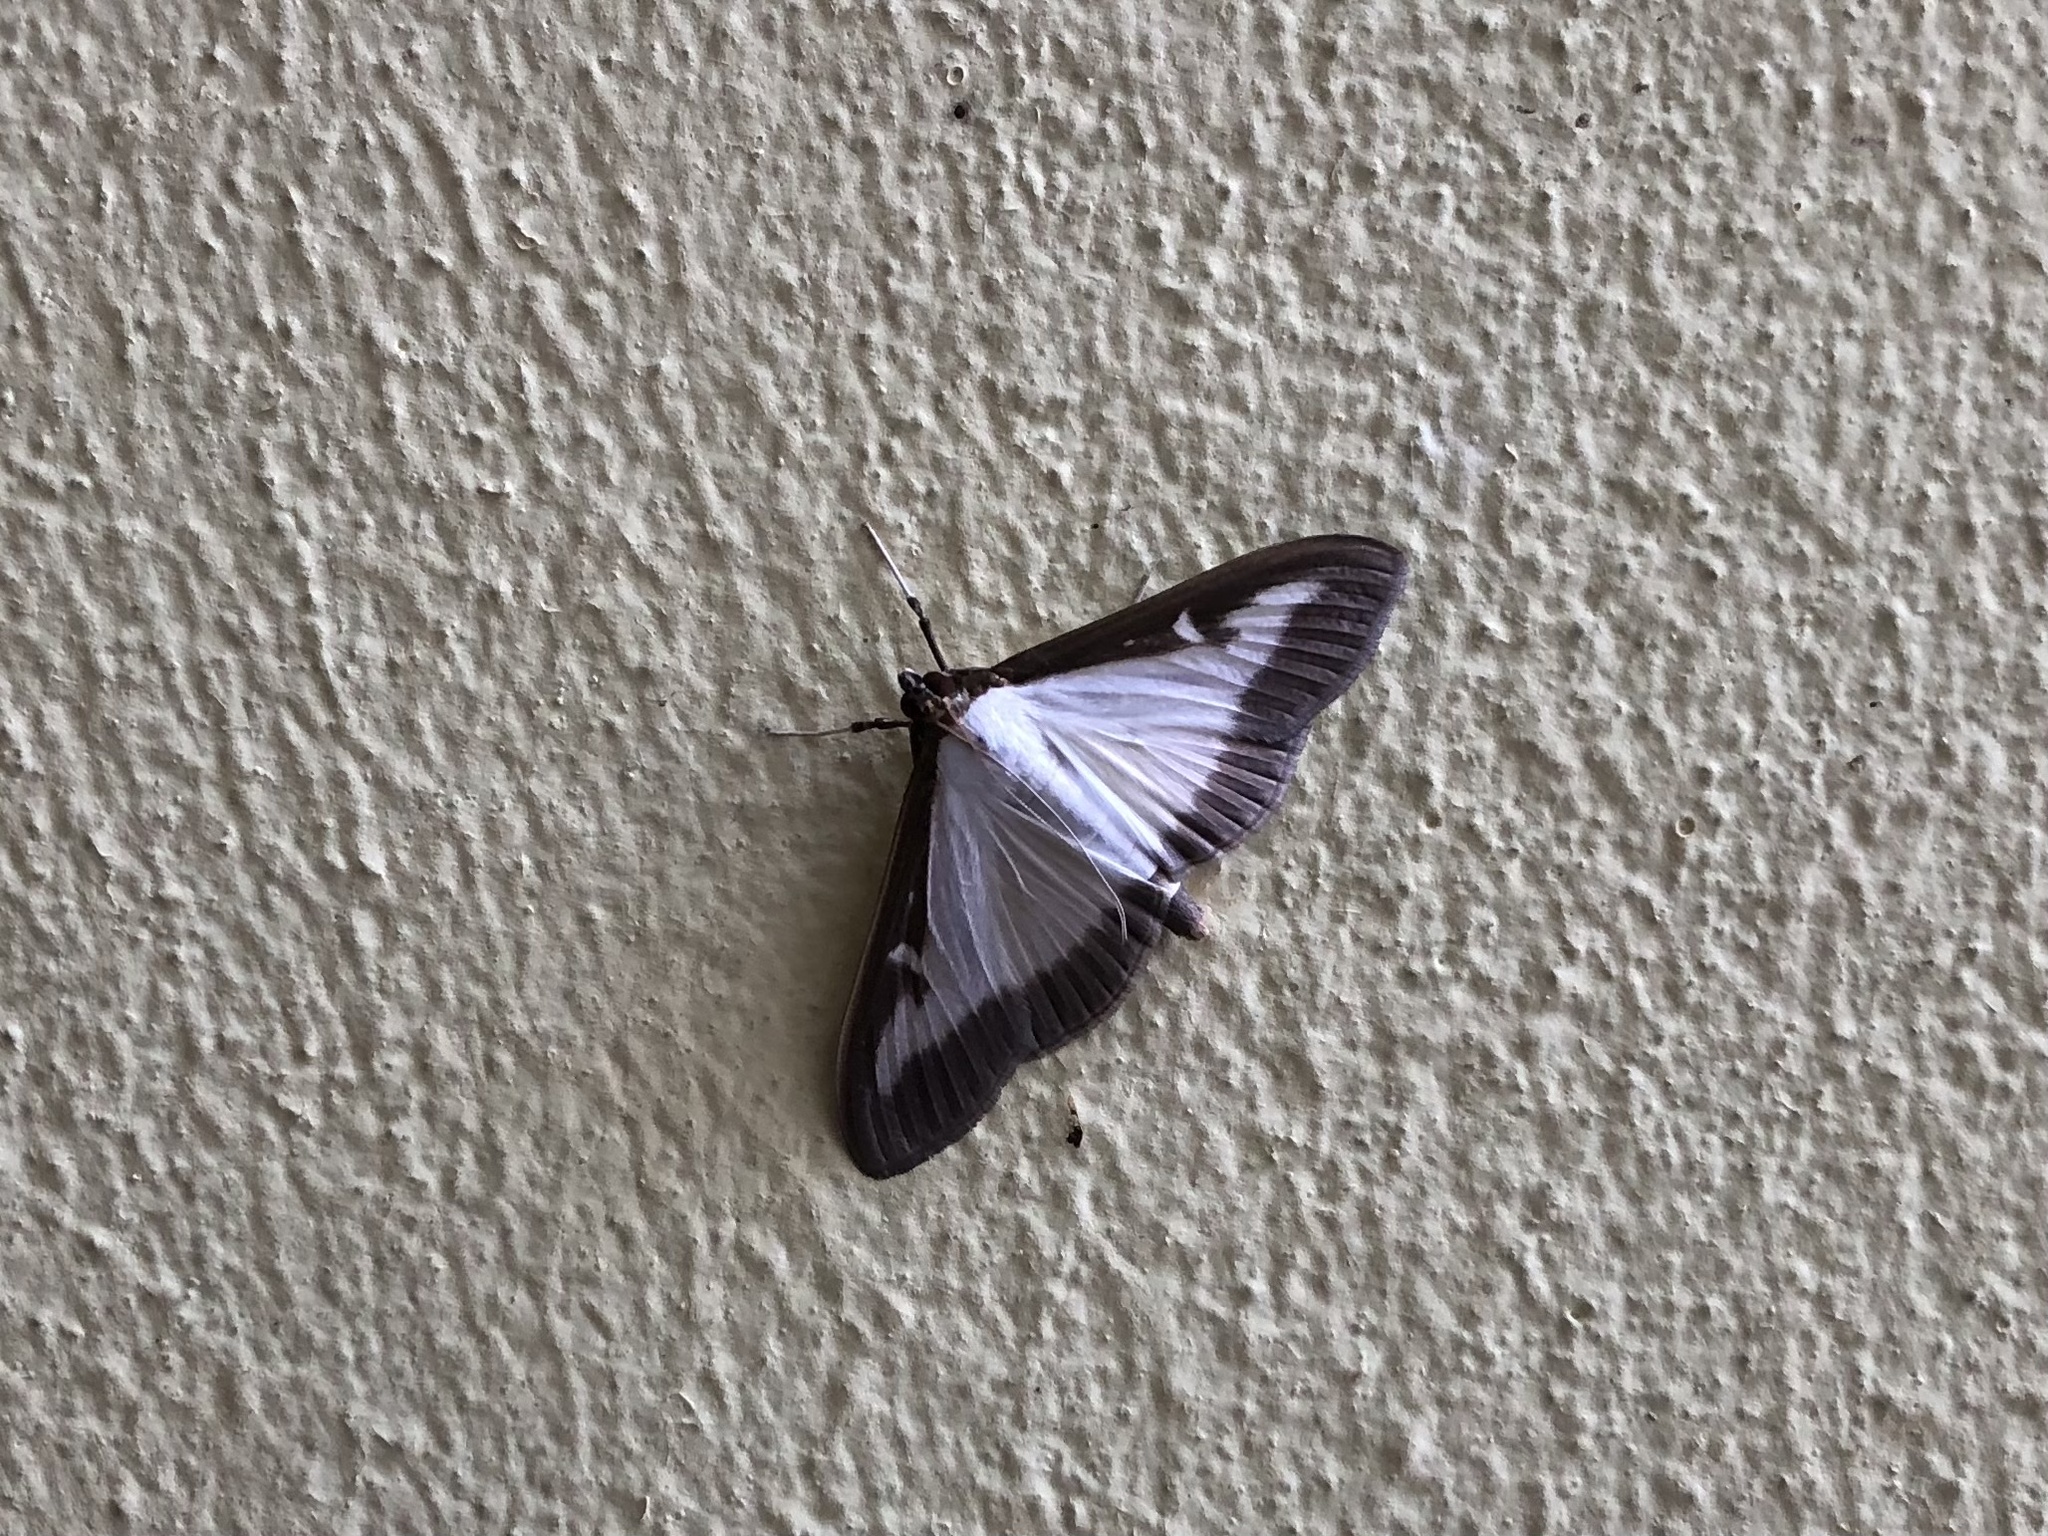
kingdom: Animalia
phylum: Arthropoda
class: Insecta
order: Lepidoptera
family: Crambidae
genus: Cydalima
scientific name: Cydalima perspectalis
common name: Box tree moth
